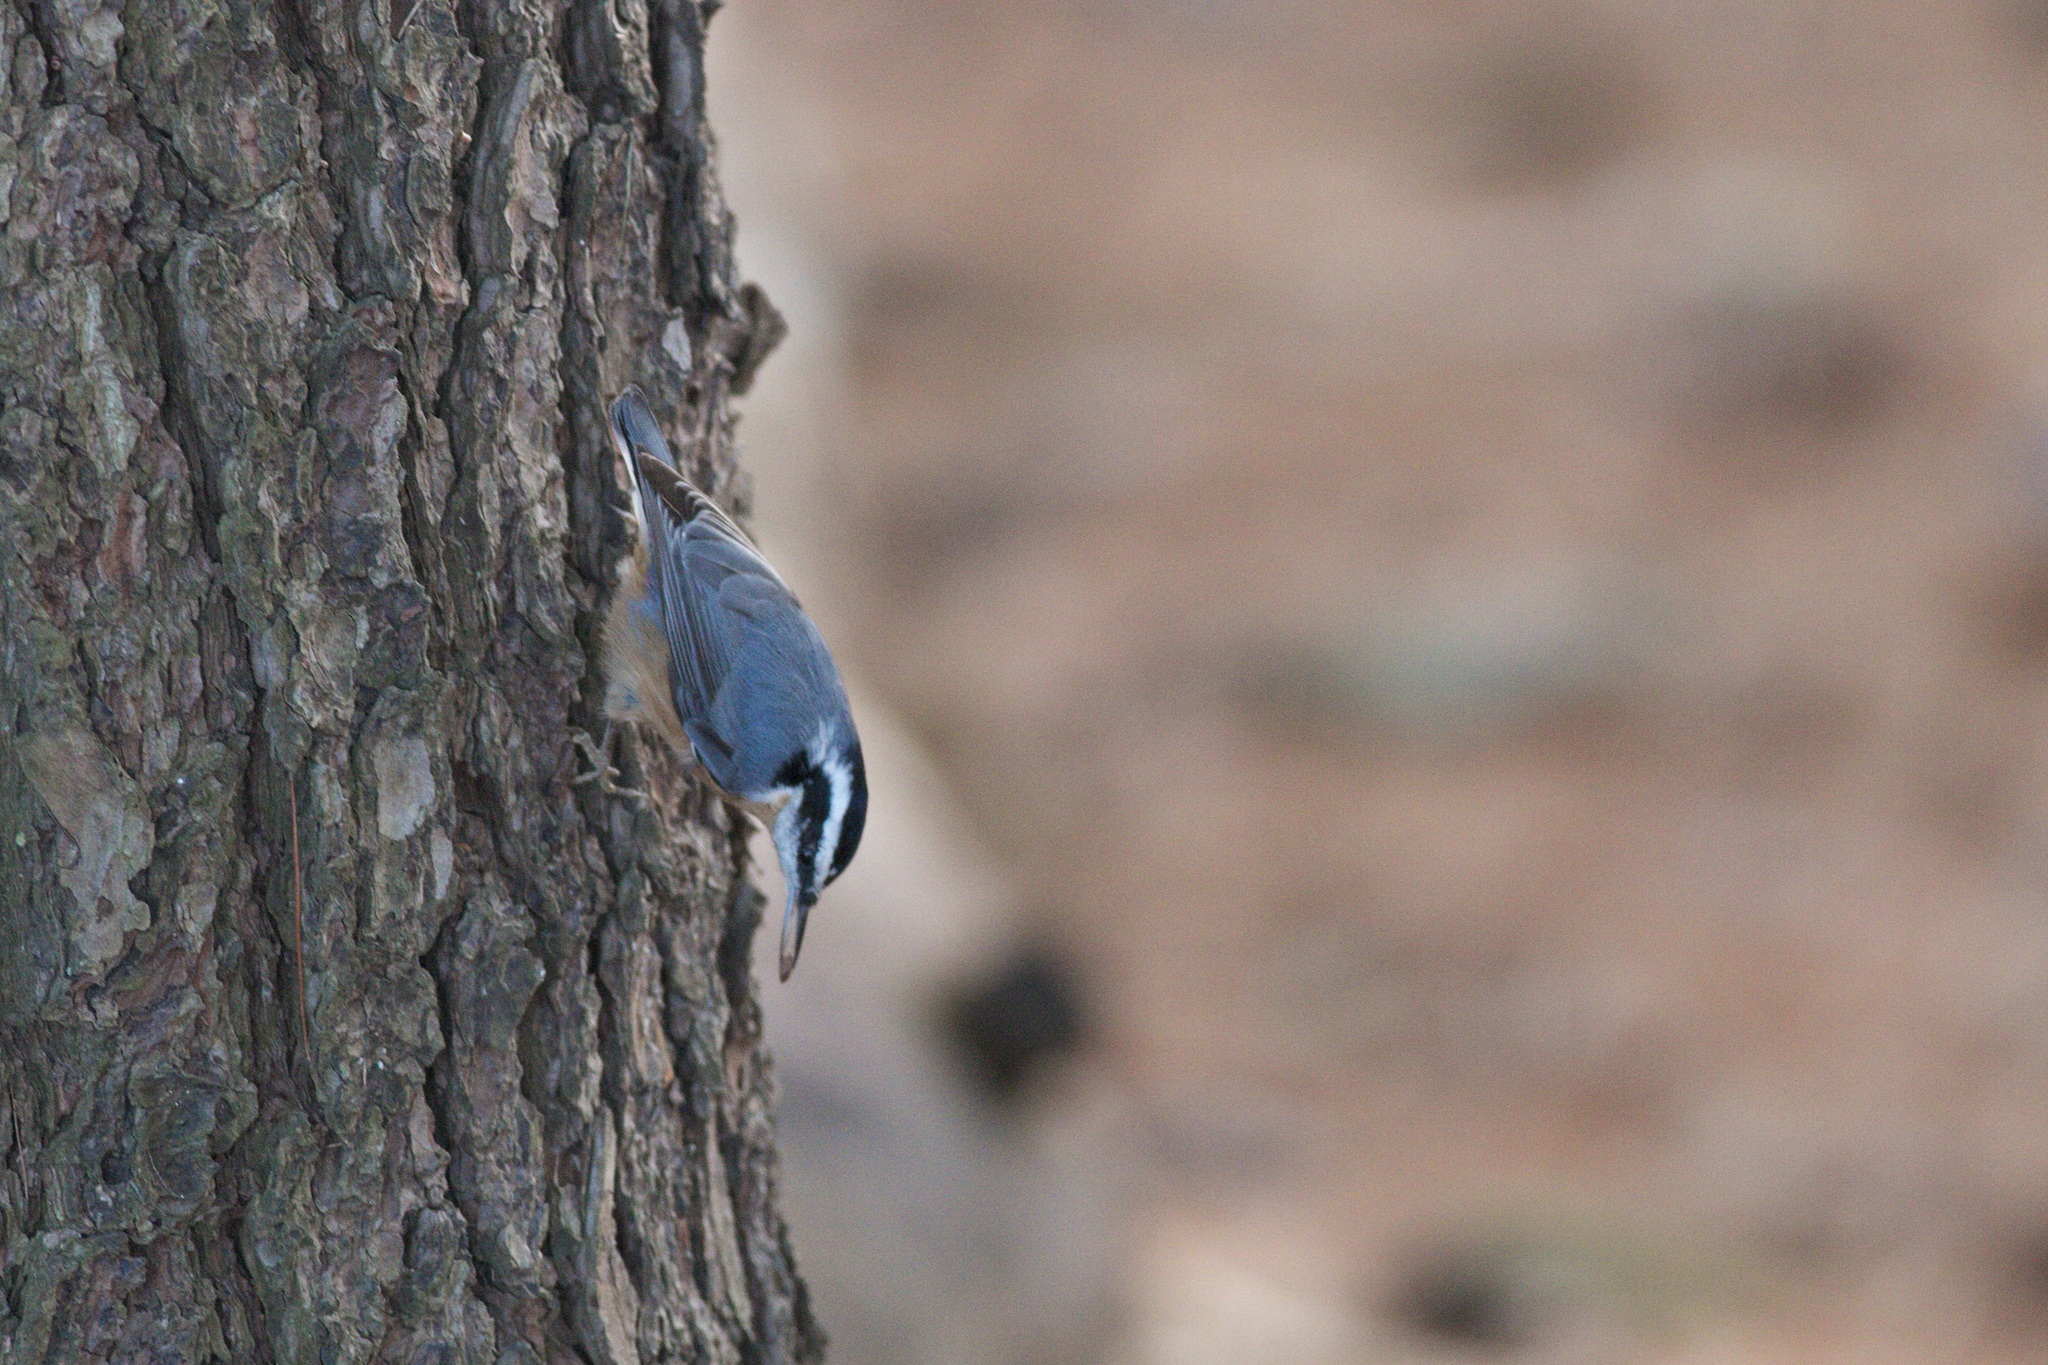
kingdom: Animalia
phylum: Chordata
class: Aves
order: Passeriformes
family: Sittidae
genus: Sitta
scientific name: Sitta canadensis
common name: Red-breasted nuthatch
